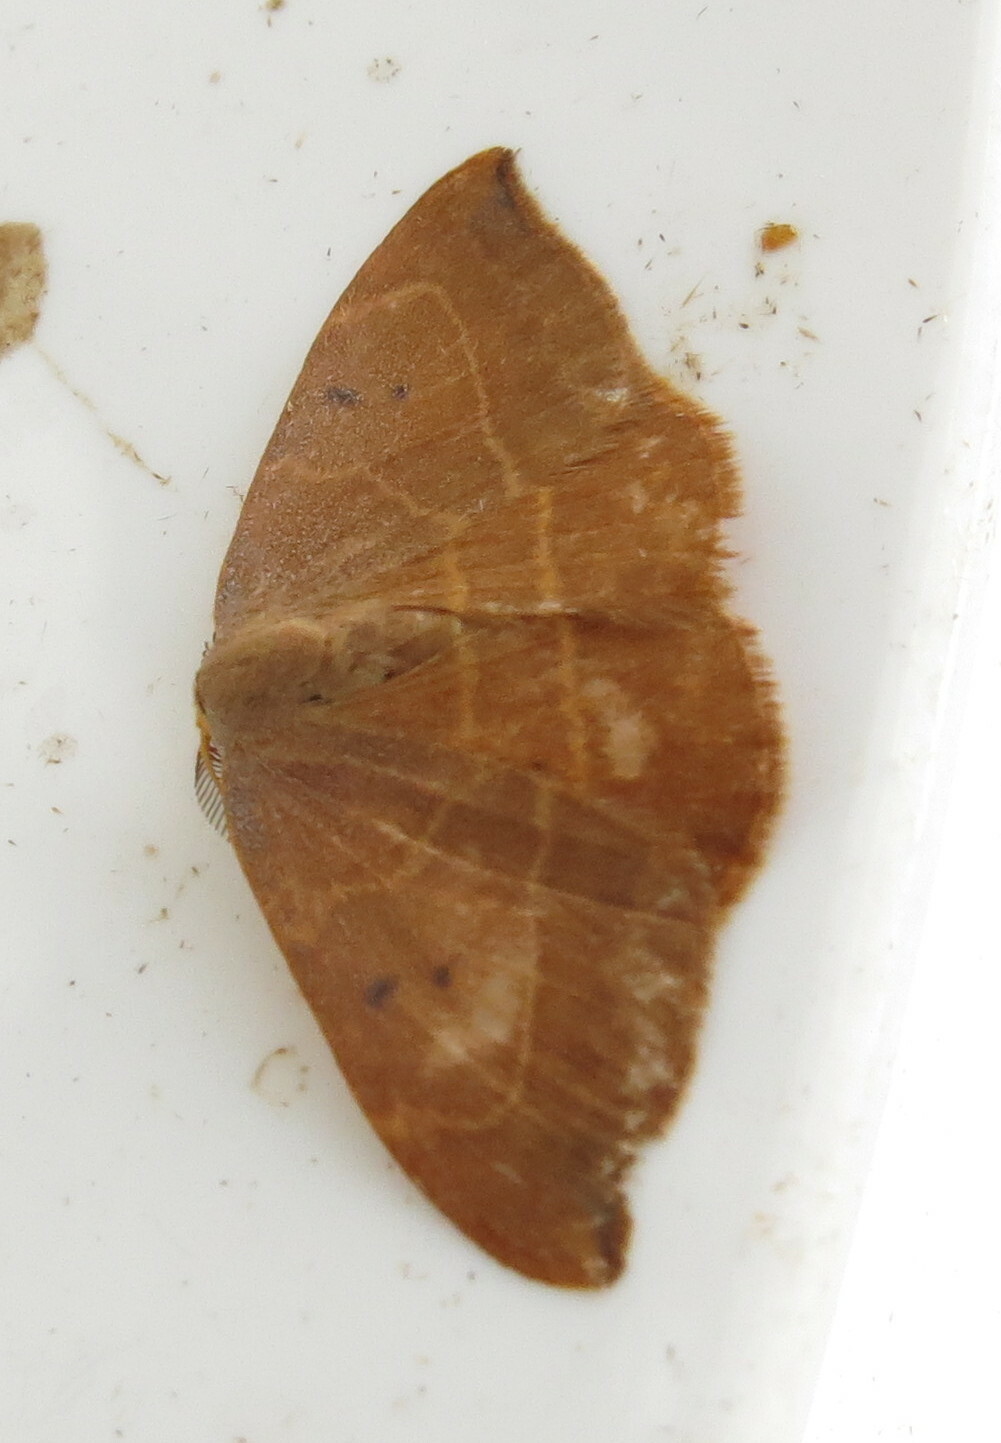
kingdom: Animalia
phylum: Arthropoda
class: Insecta
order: Lepidoptera
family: Drepanidae
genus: Watsonalla
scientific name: Watsonalla binaria
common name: Oak hook-tip
